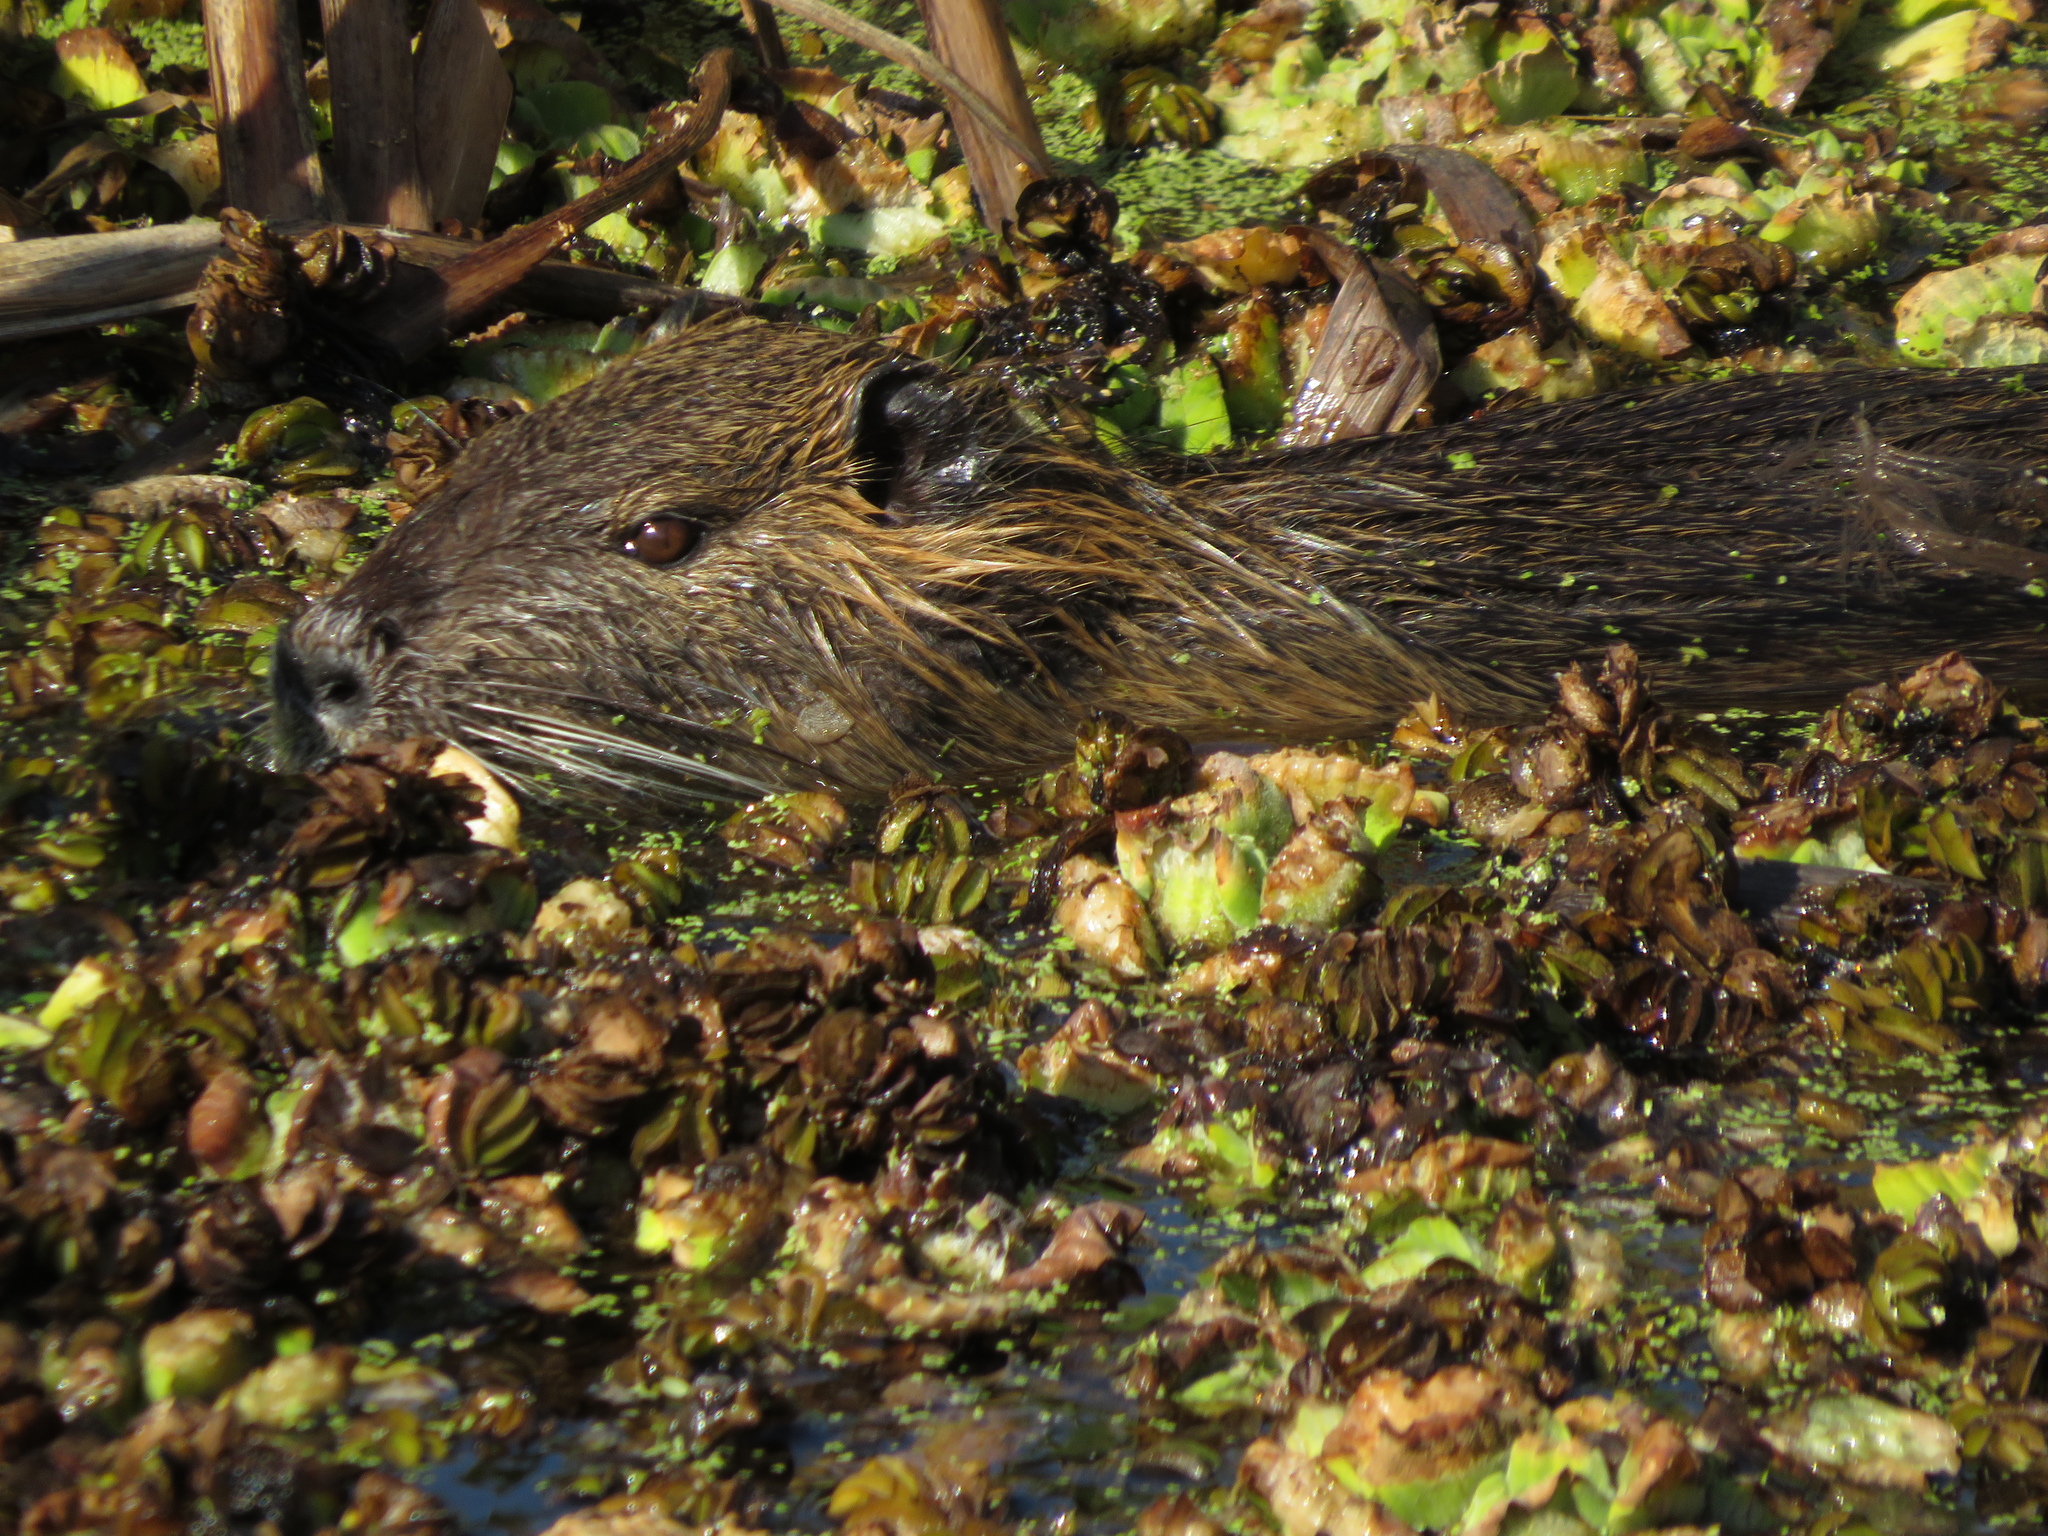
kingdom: Animalia
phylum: Chordata
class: Mammalia
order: Rodentia
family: Myocastoridae
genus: Myocastor
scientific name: Myocastor coypus
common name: Coypu
